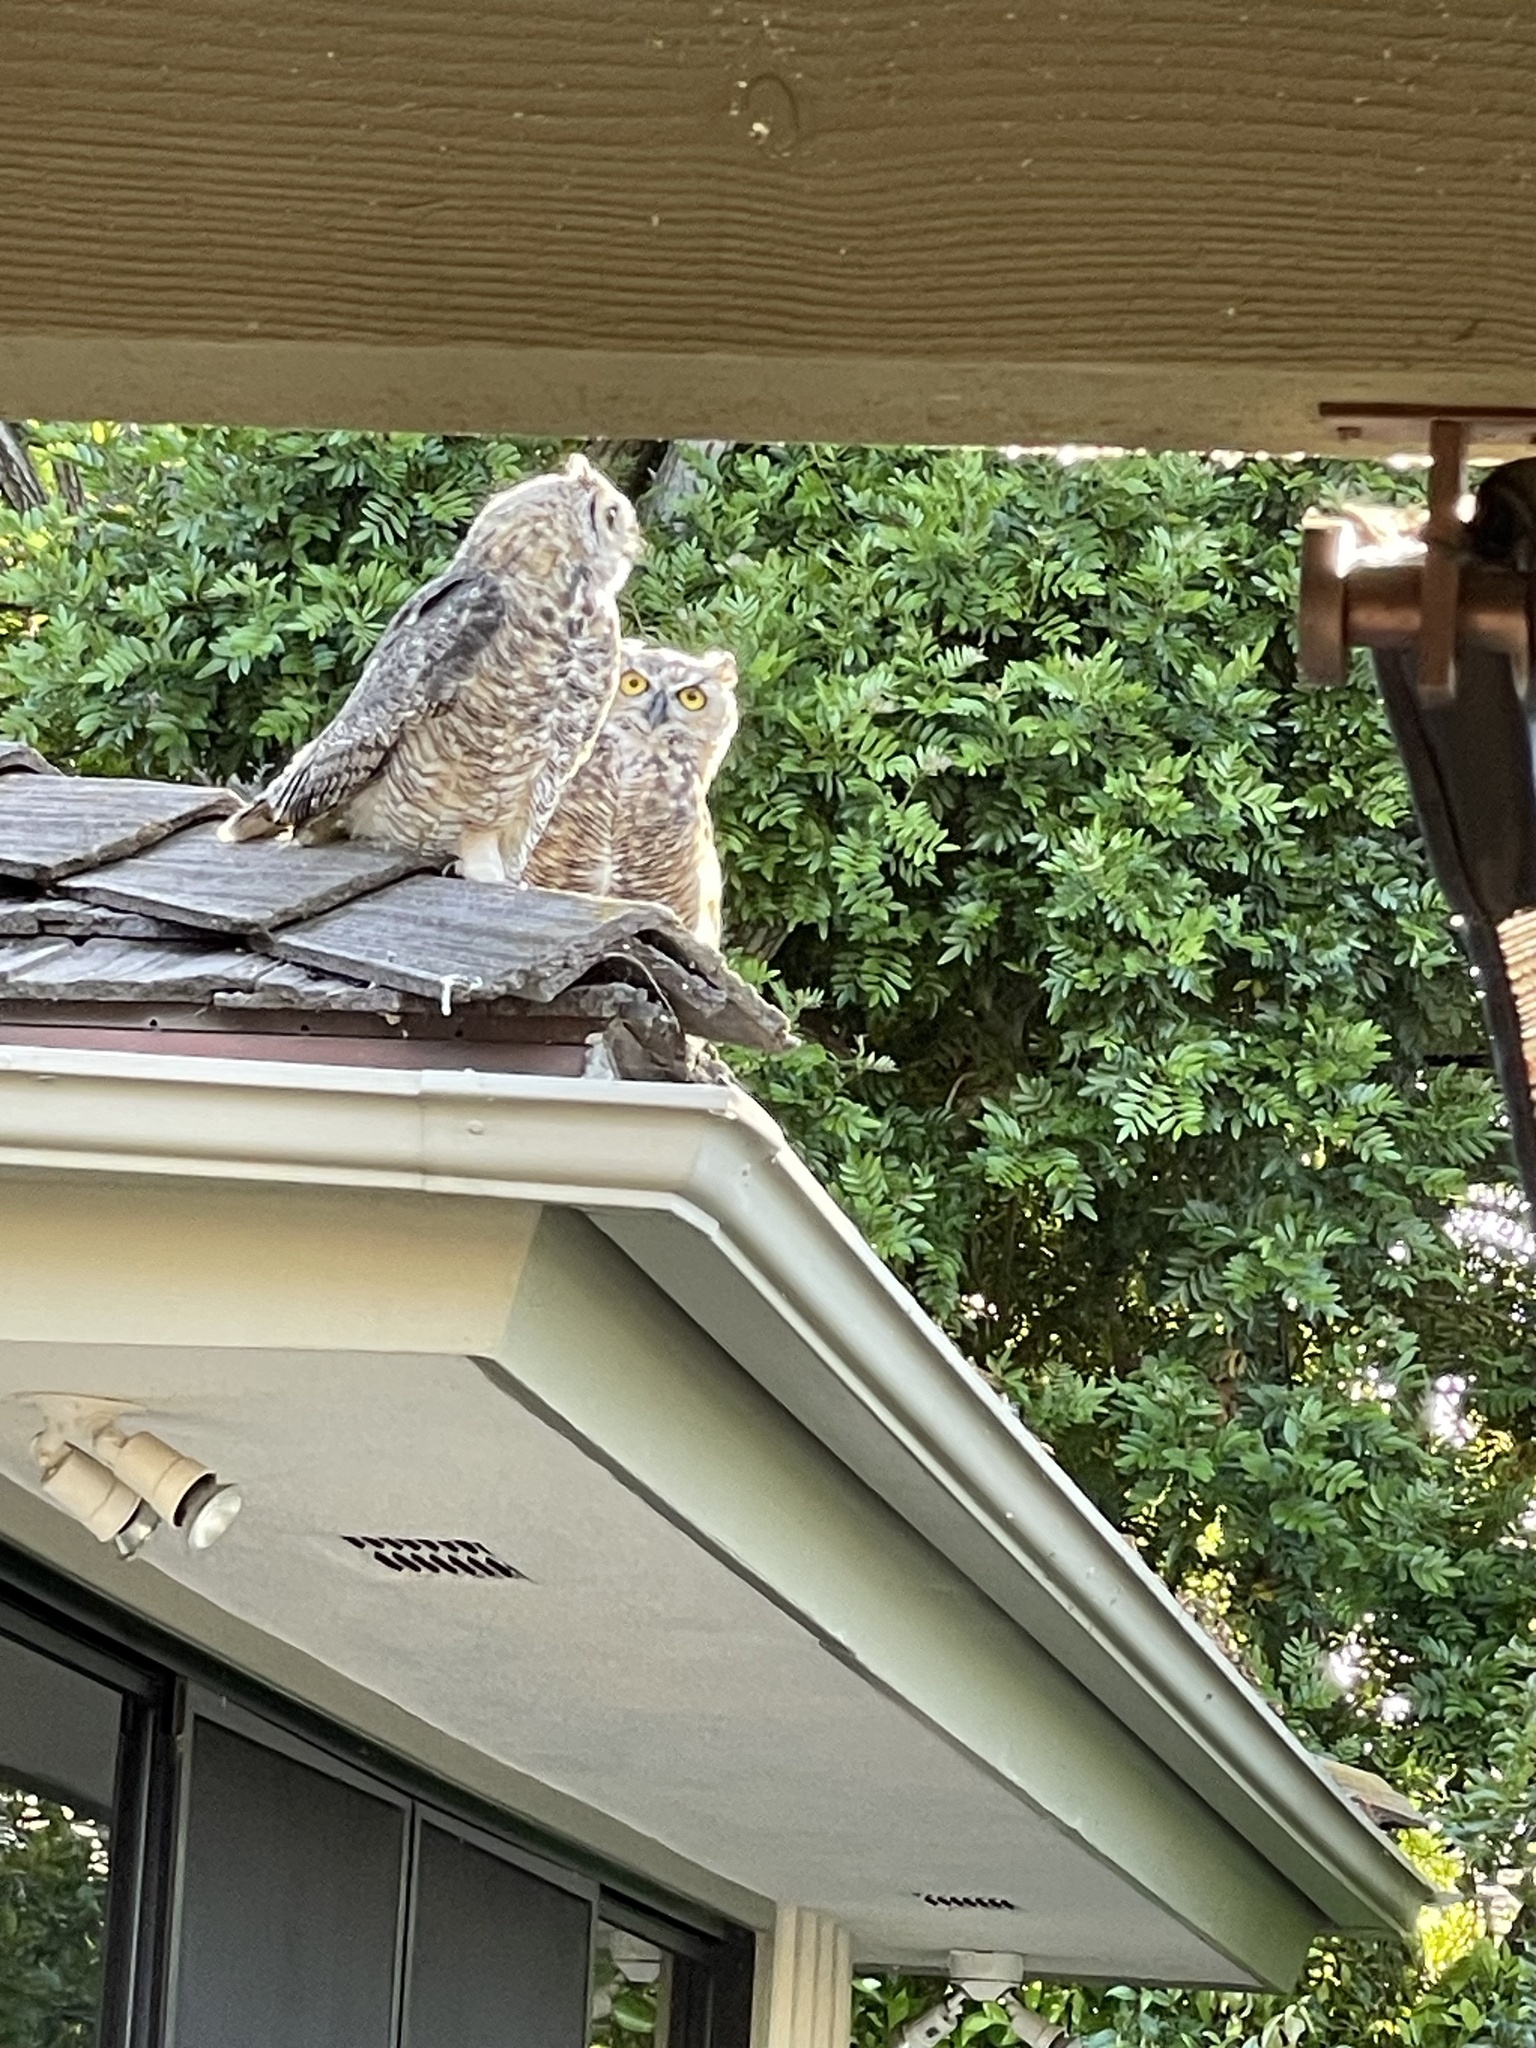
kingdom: Animalia
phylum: Chordata
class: Aves
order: Strigiformes
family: Strigidae
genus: Bubo
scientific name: Bubo virginianus
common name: Great horned owl
